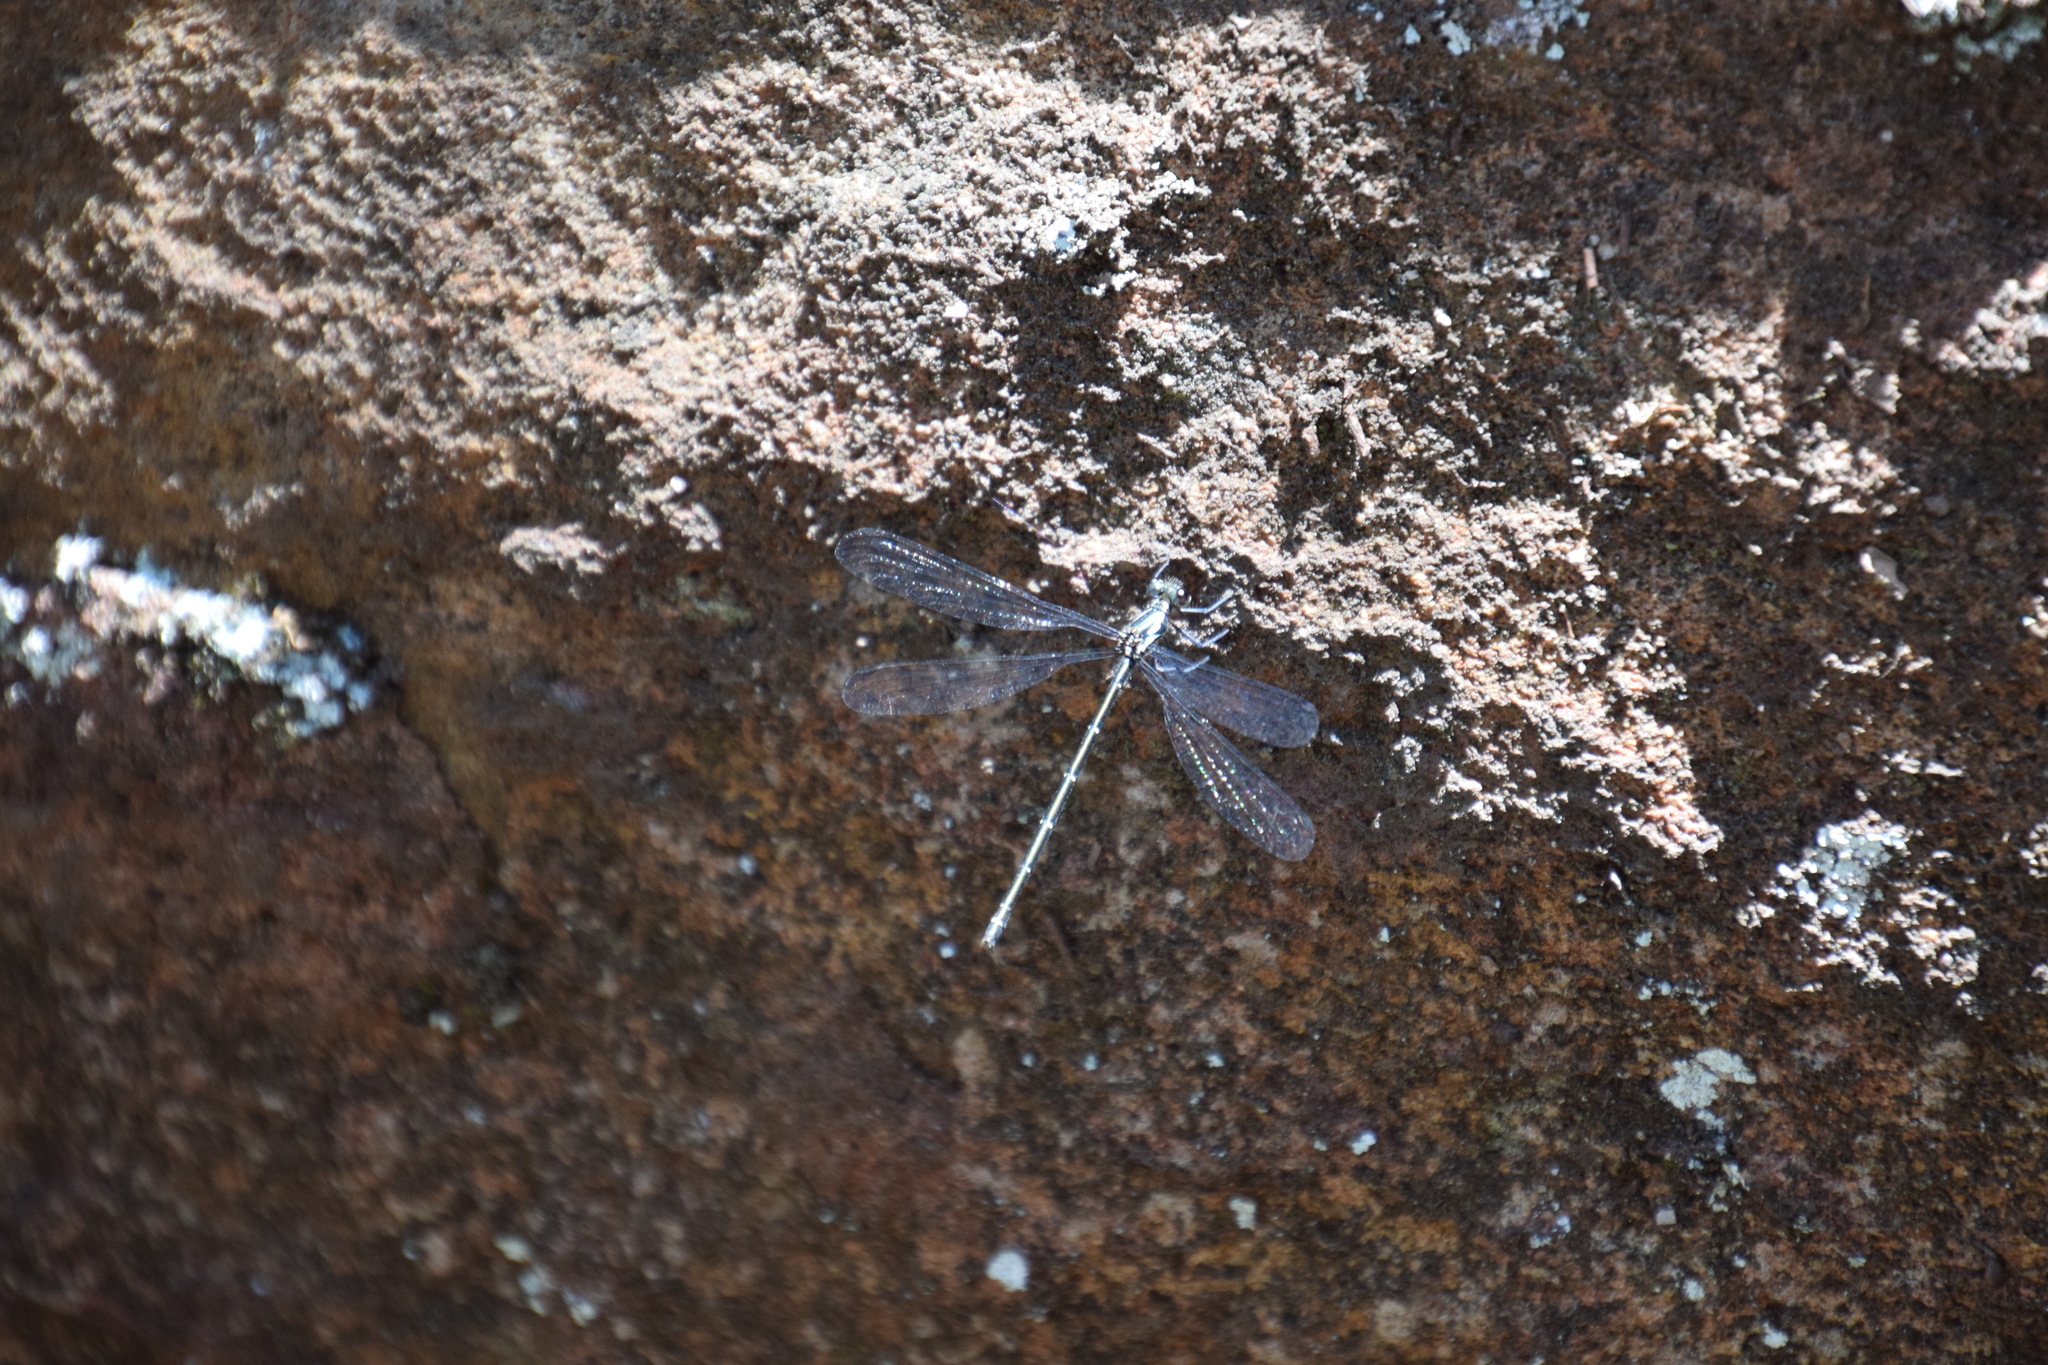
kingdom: Animalia
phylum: Arthropoda
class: Insecta
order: Odonata
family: Argiolestidae
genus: Austroargiolestes
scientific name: Austroargiolestes icteromelas
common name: Common flatwing
